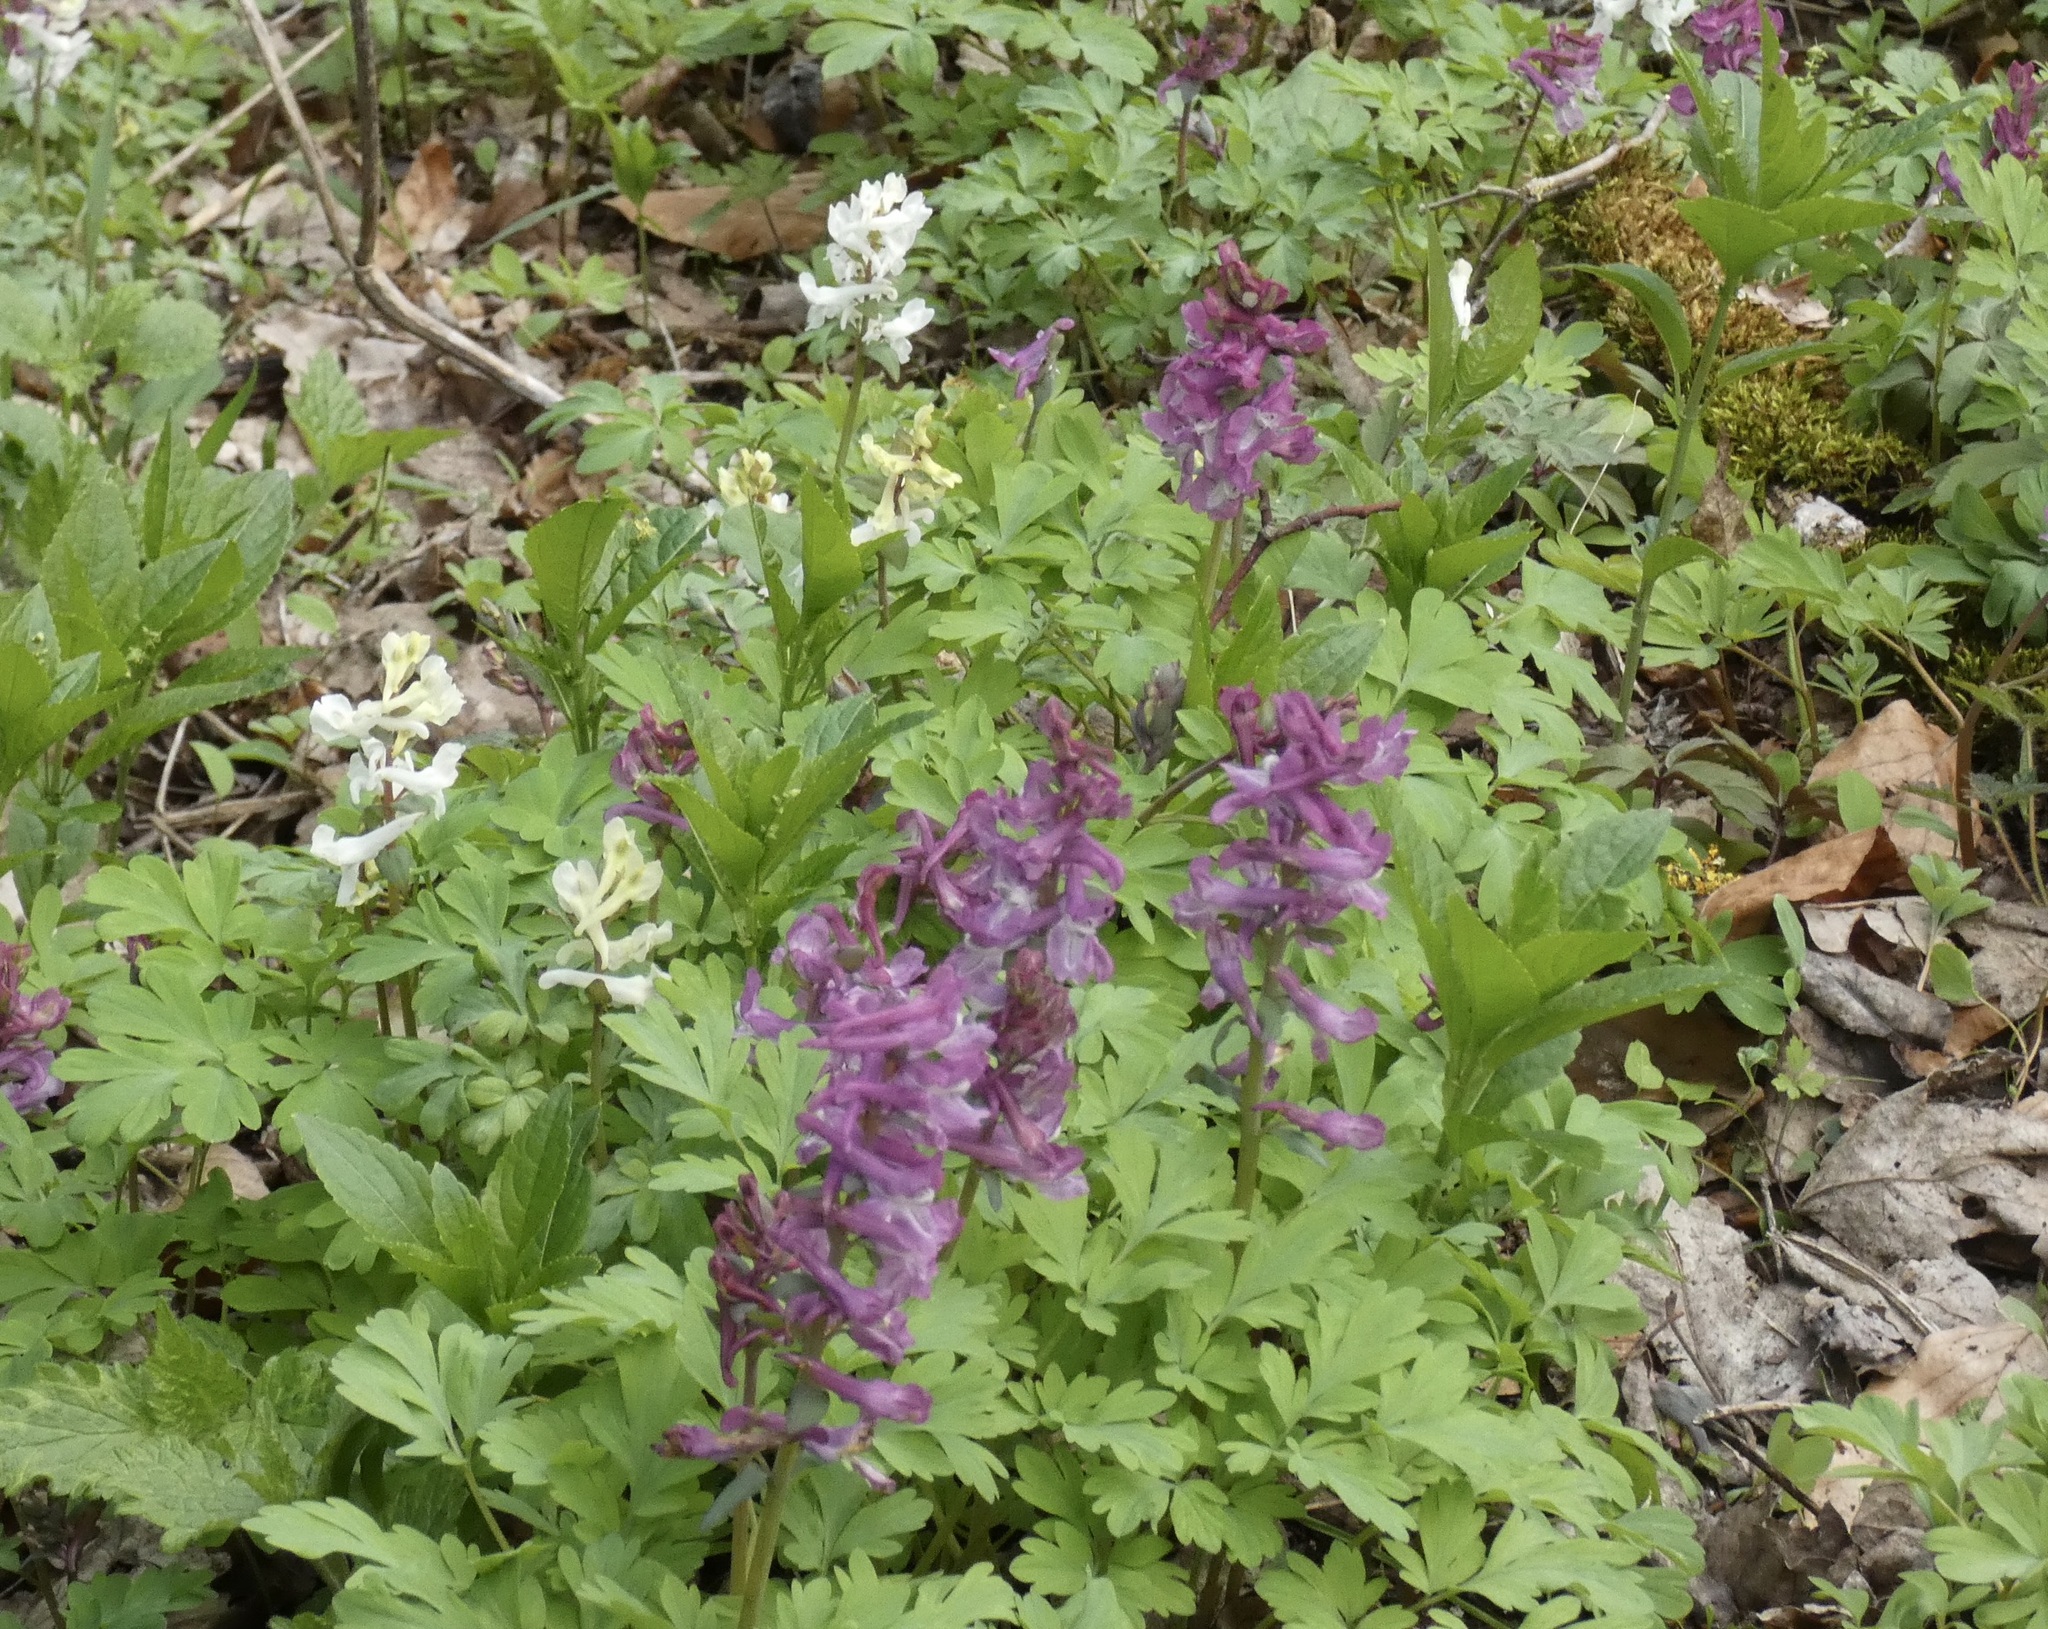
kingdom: Plantae
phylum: Tracheophyta
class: Magnoliopsida
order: Ranunculales
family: Papaveraceae
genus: Corydalis
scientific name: Corydalis cava
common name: Hollowroot
